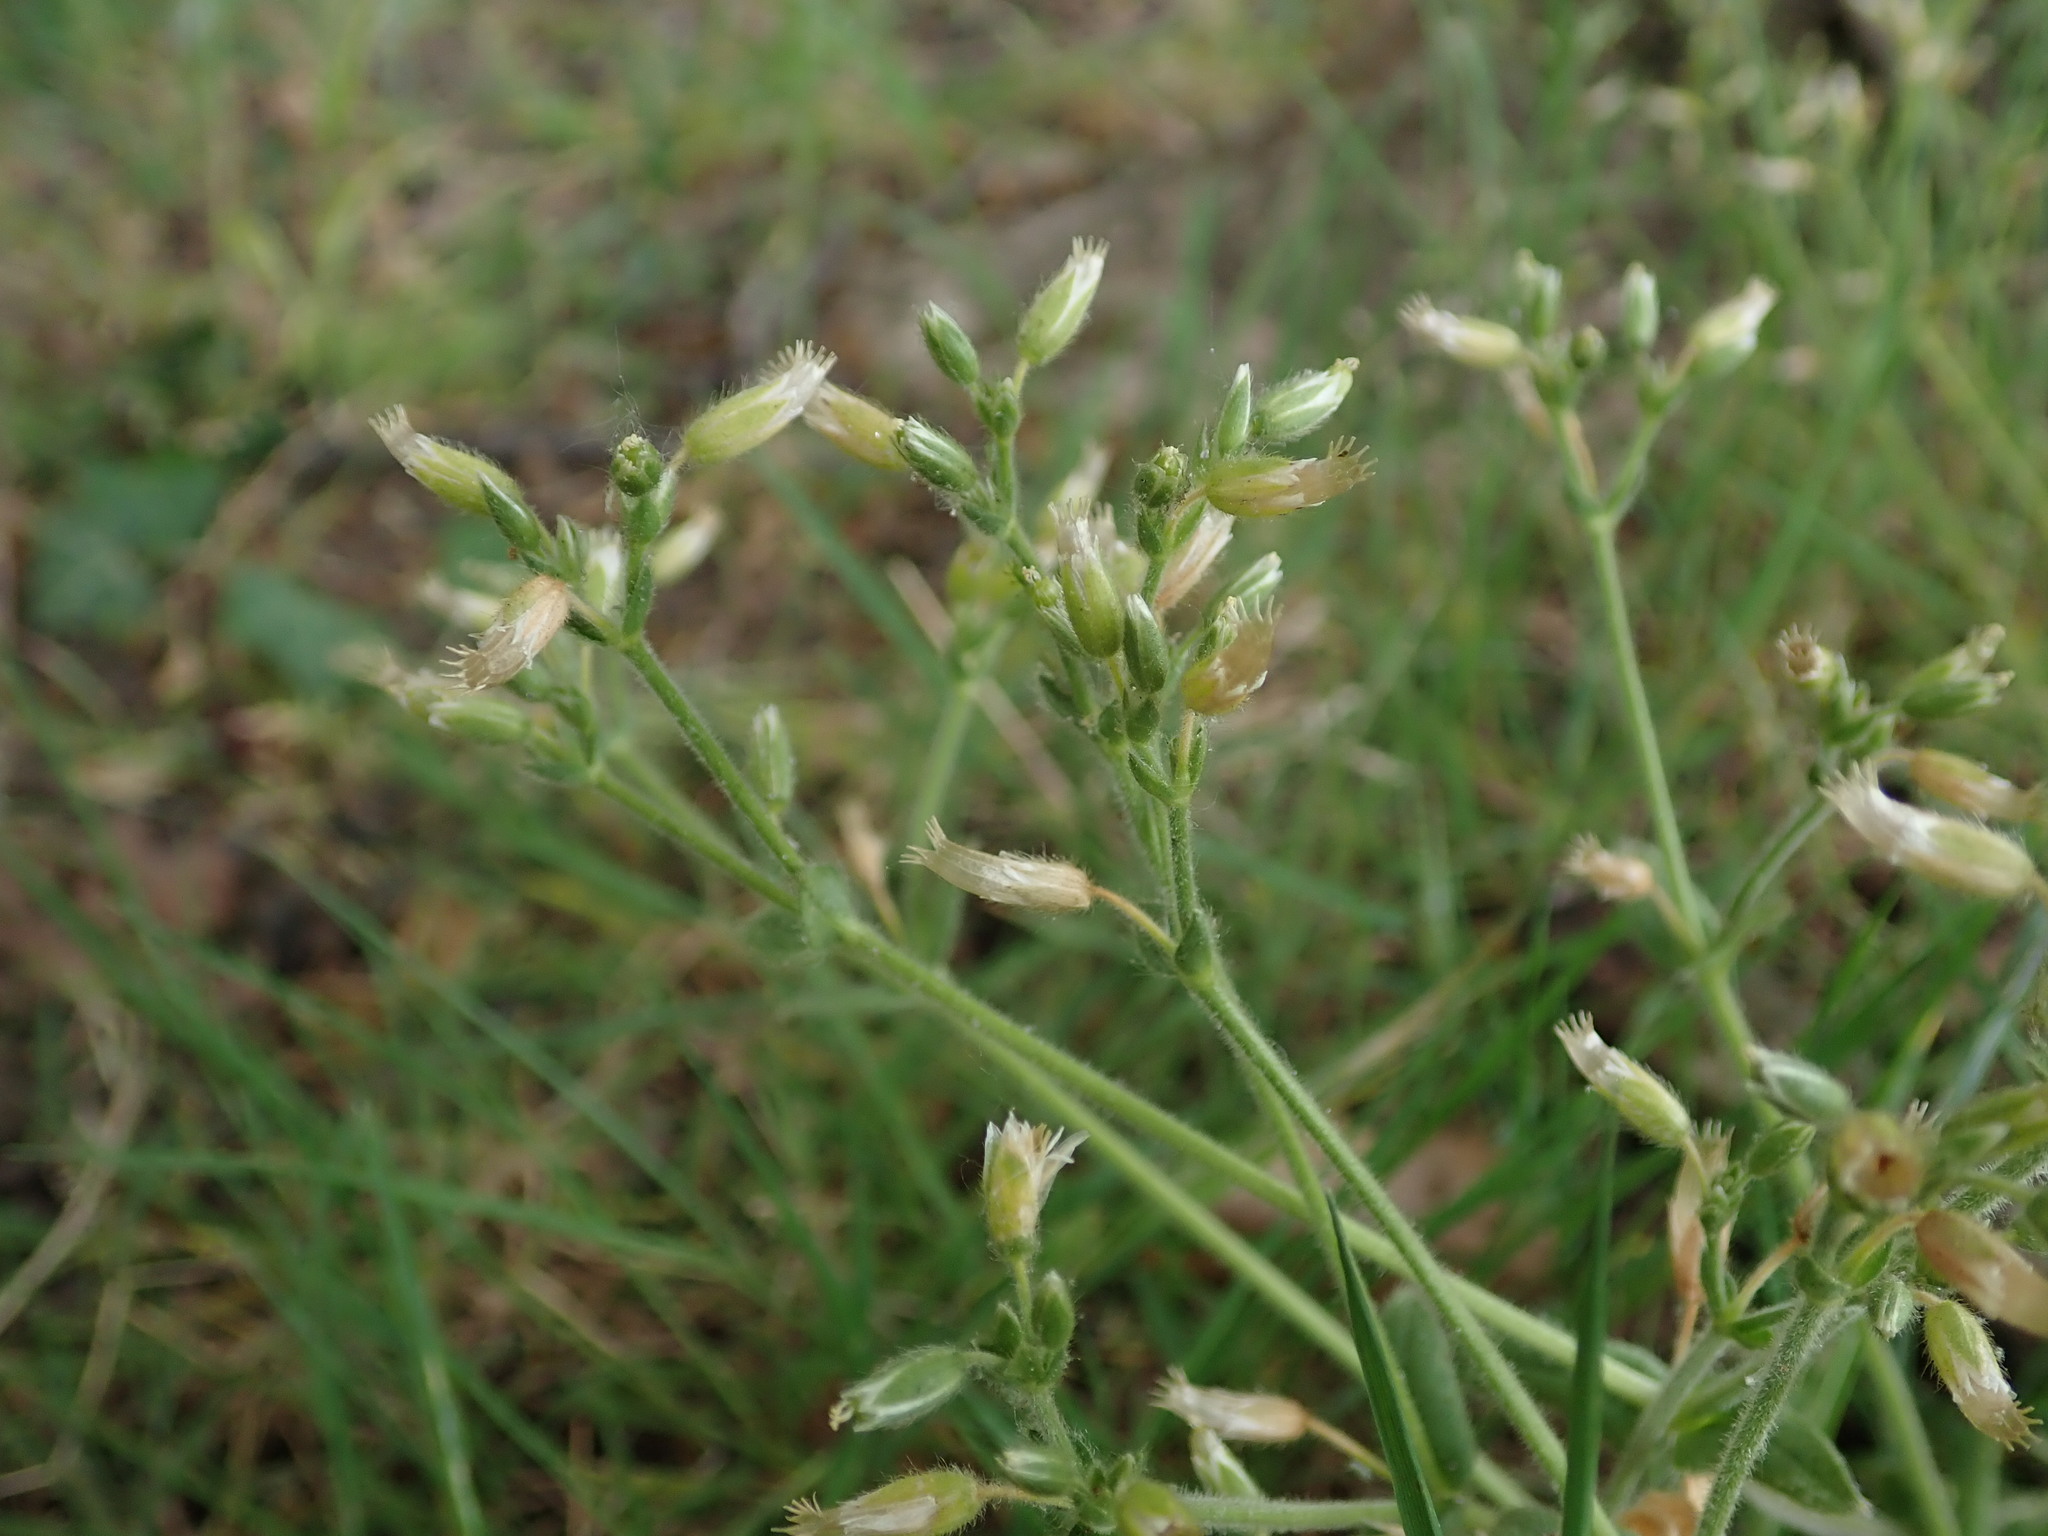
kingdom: Plantae
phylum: Tracheophyta
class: Magnoliopsida
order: Caryophyllales
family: Caryophyllaceae
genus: Cerastium
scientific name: Cerastium fontanum
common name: Common mouse-ear
